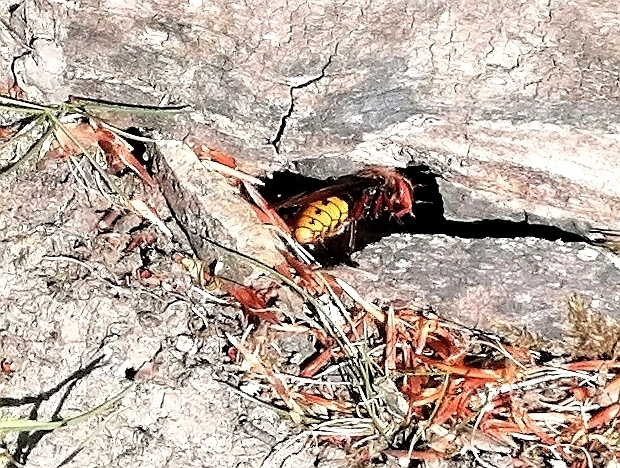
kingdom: Animalia
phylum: Arthropoda
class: Insecta
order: Hymenoptera
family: Vespidae
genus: Vespa
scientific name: Vespa crabro
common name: Hornet
